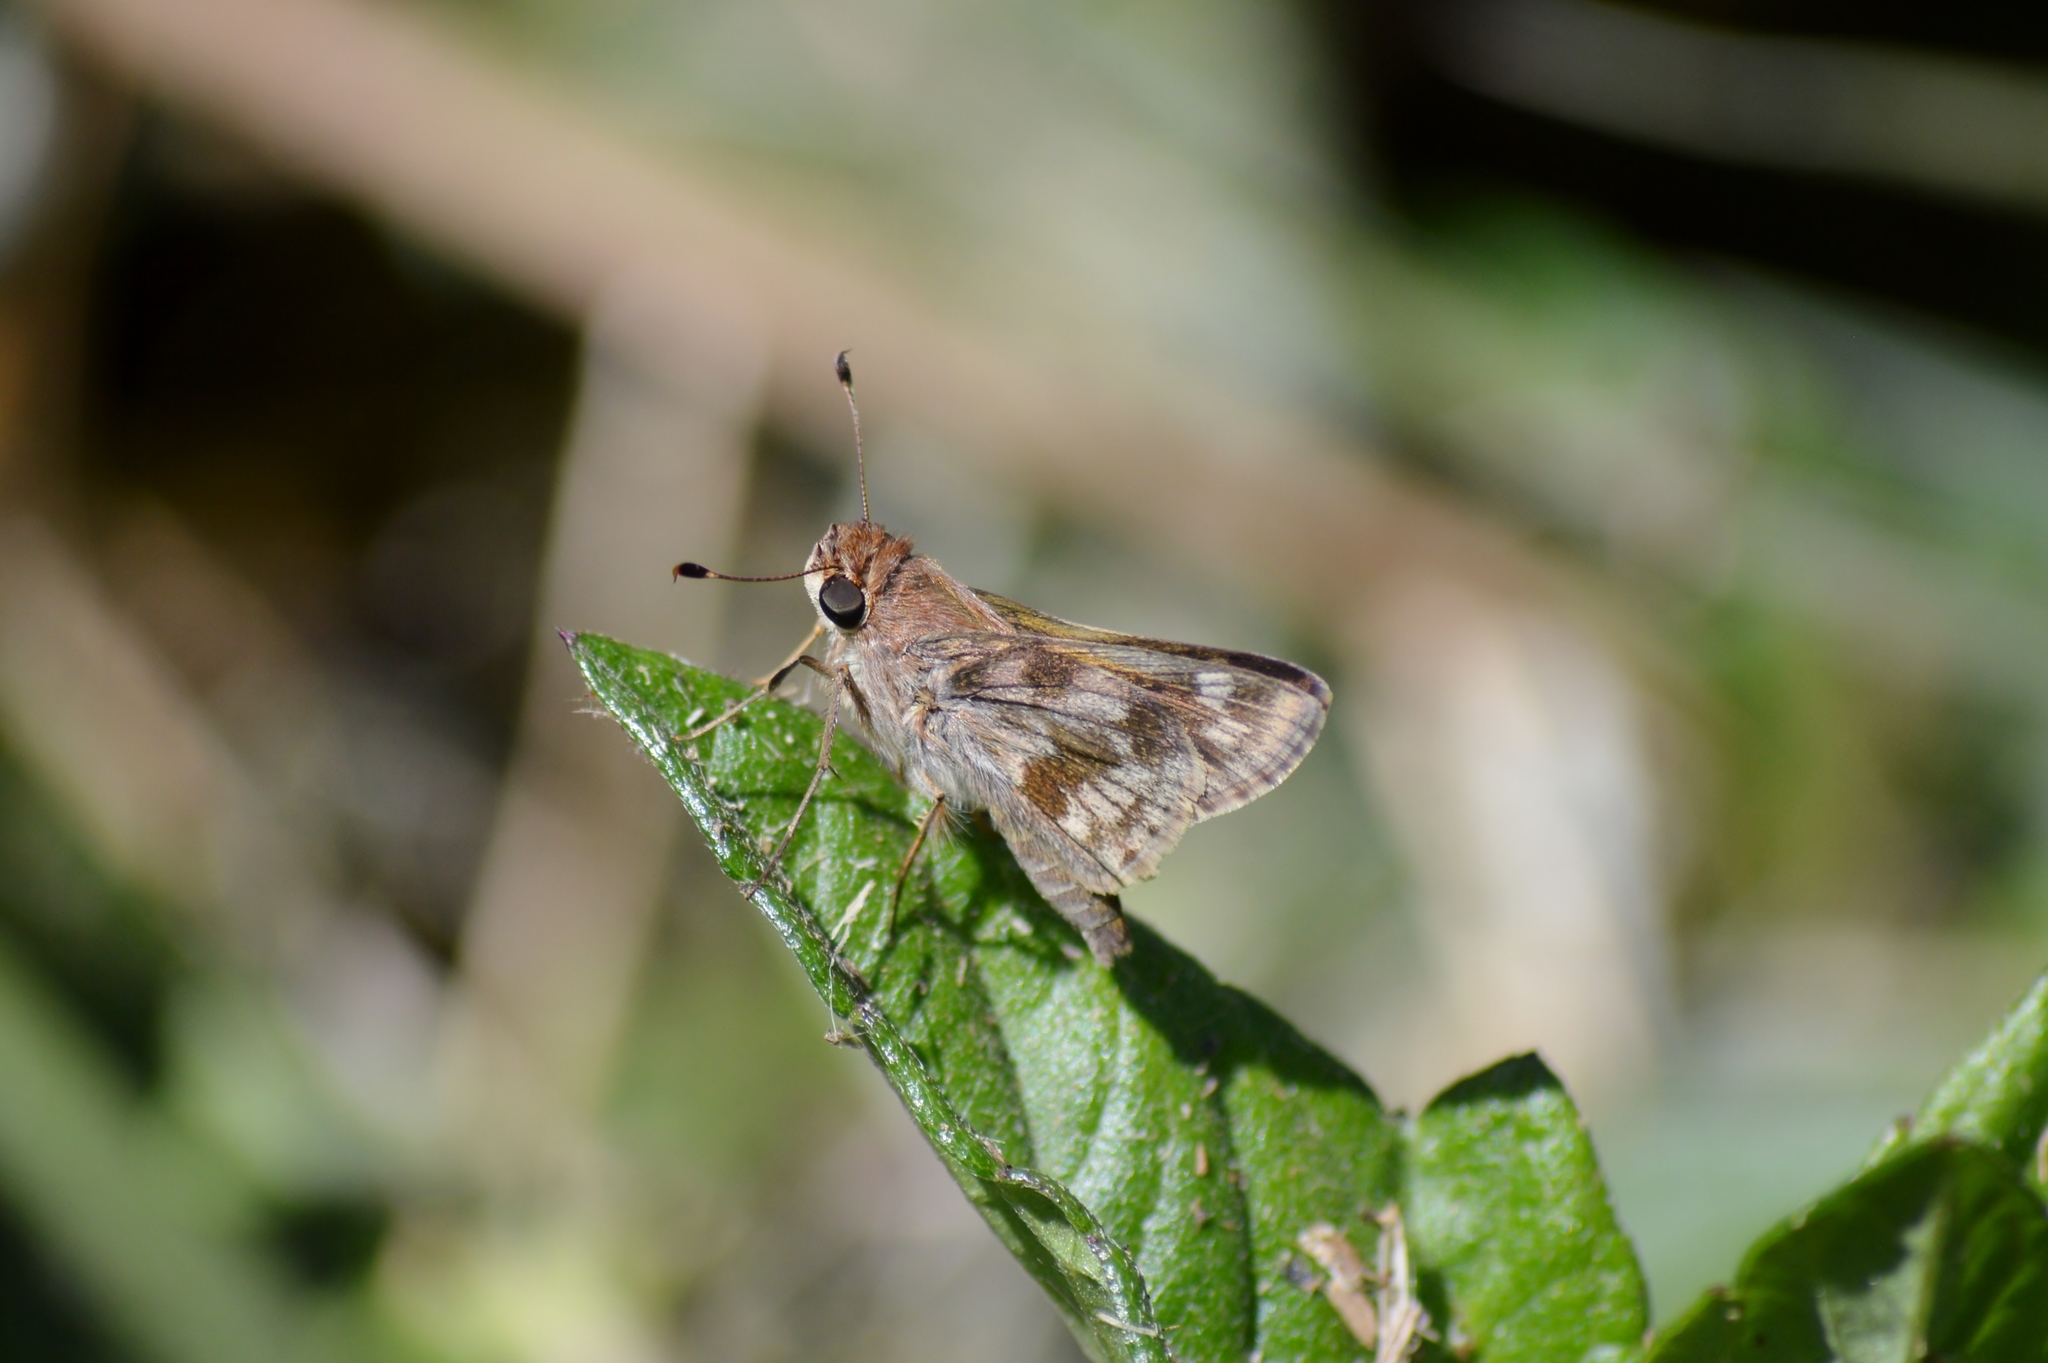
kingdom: Animalia
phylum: Arthropoda
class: Insecta
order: Lepidoptera
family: Hesperiidae
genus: Pompeius
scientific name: Pompeius pompeius
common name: Pompeius skipper
